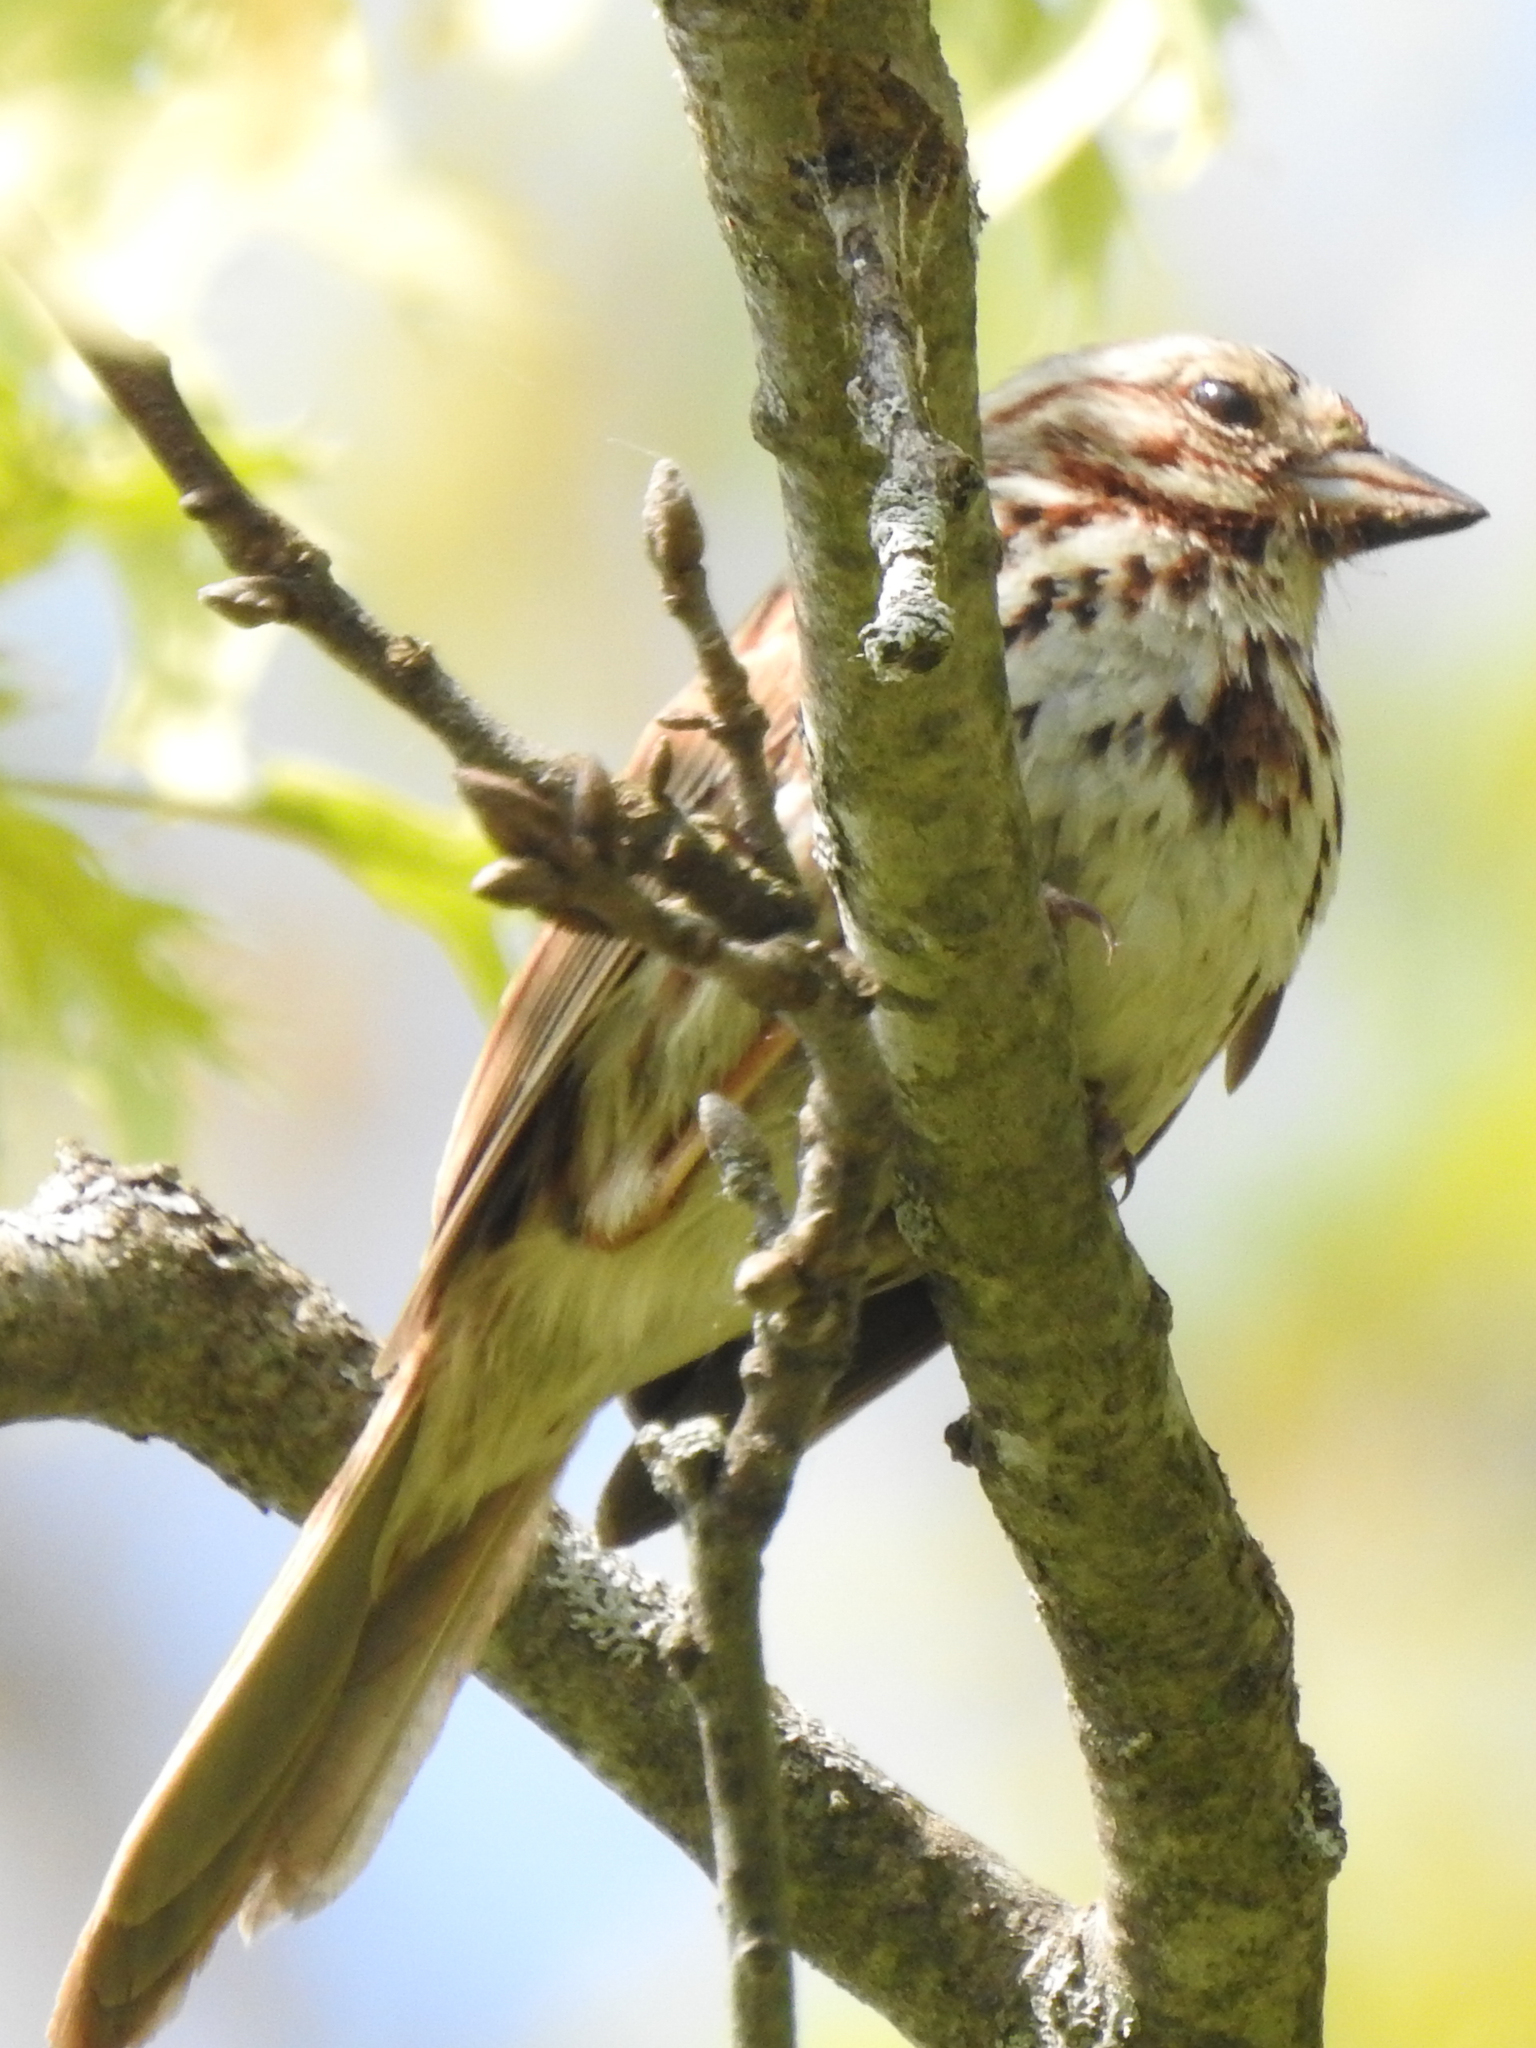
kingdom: Animalia
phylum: Chordata
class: Aves
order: Passeriformes
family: Passerellidae
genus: Melospiza
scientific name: Melospiza melodia
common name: Song sparrow
